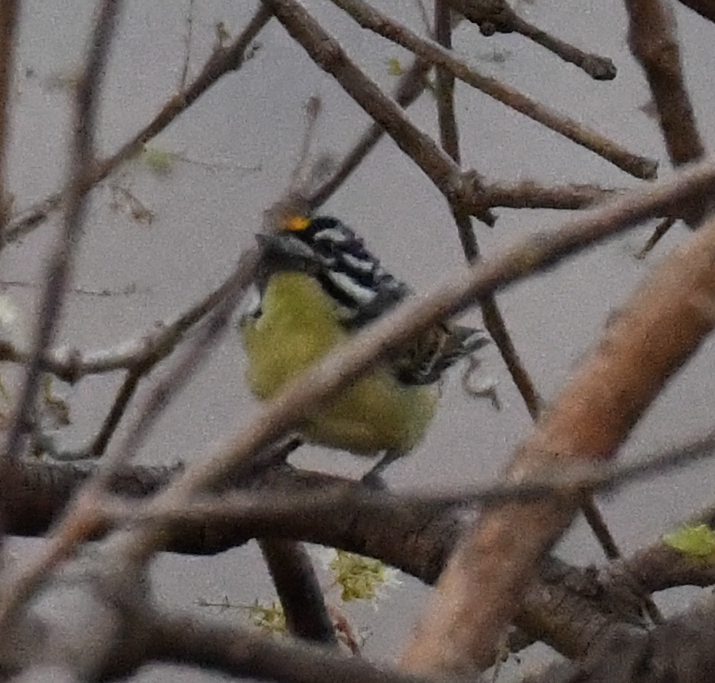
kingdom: Animalia
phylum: Chordata
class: Aves
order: Piciformes
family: Lybiidae
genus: Pogoniulus
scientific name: Pogoniulus chrysoconus
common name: Yellow-fronted tinkerbird
